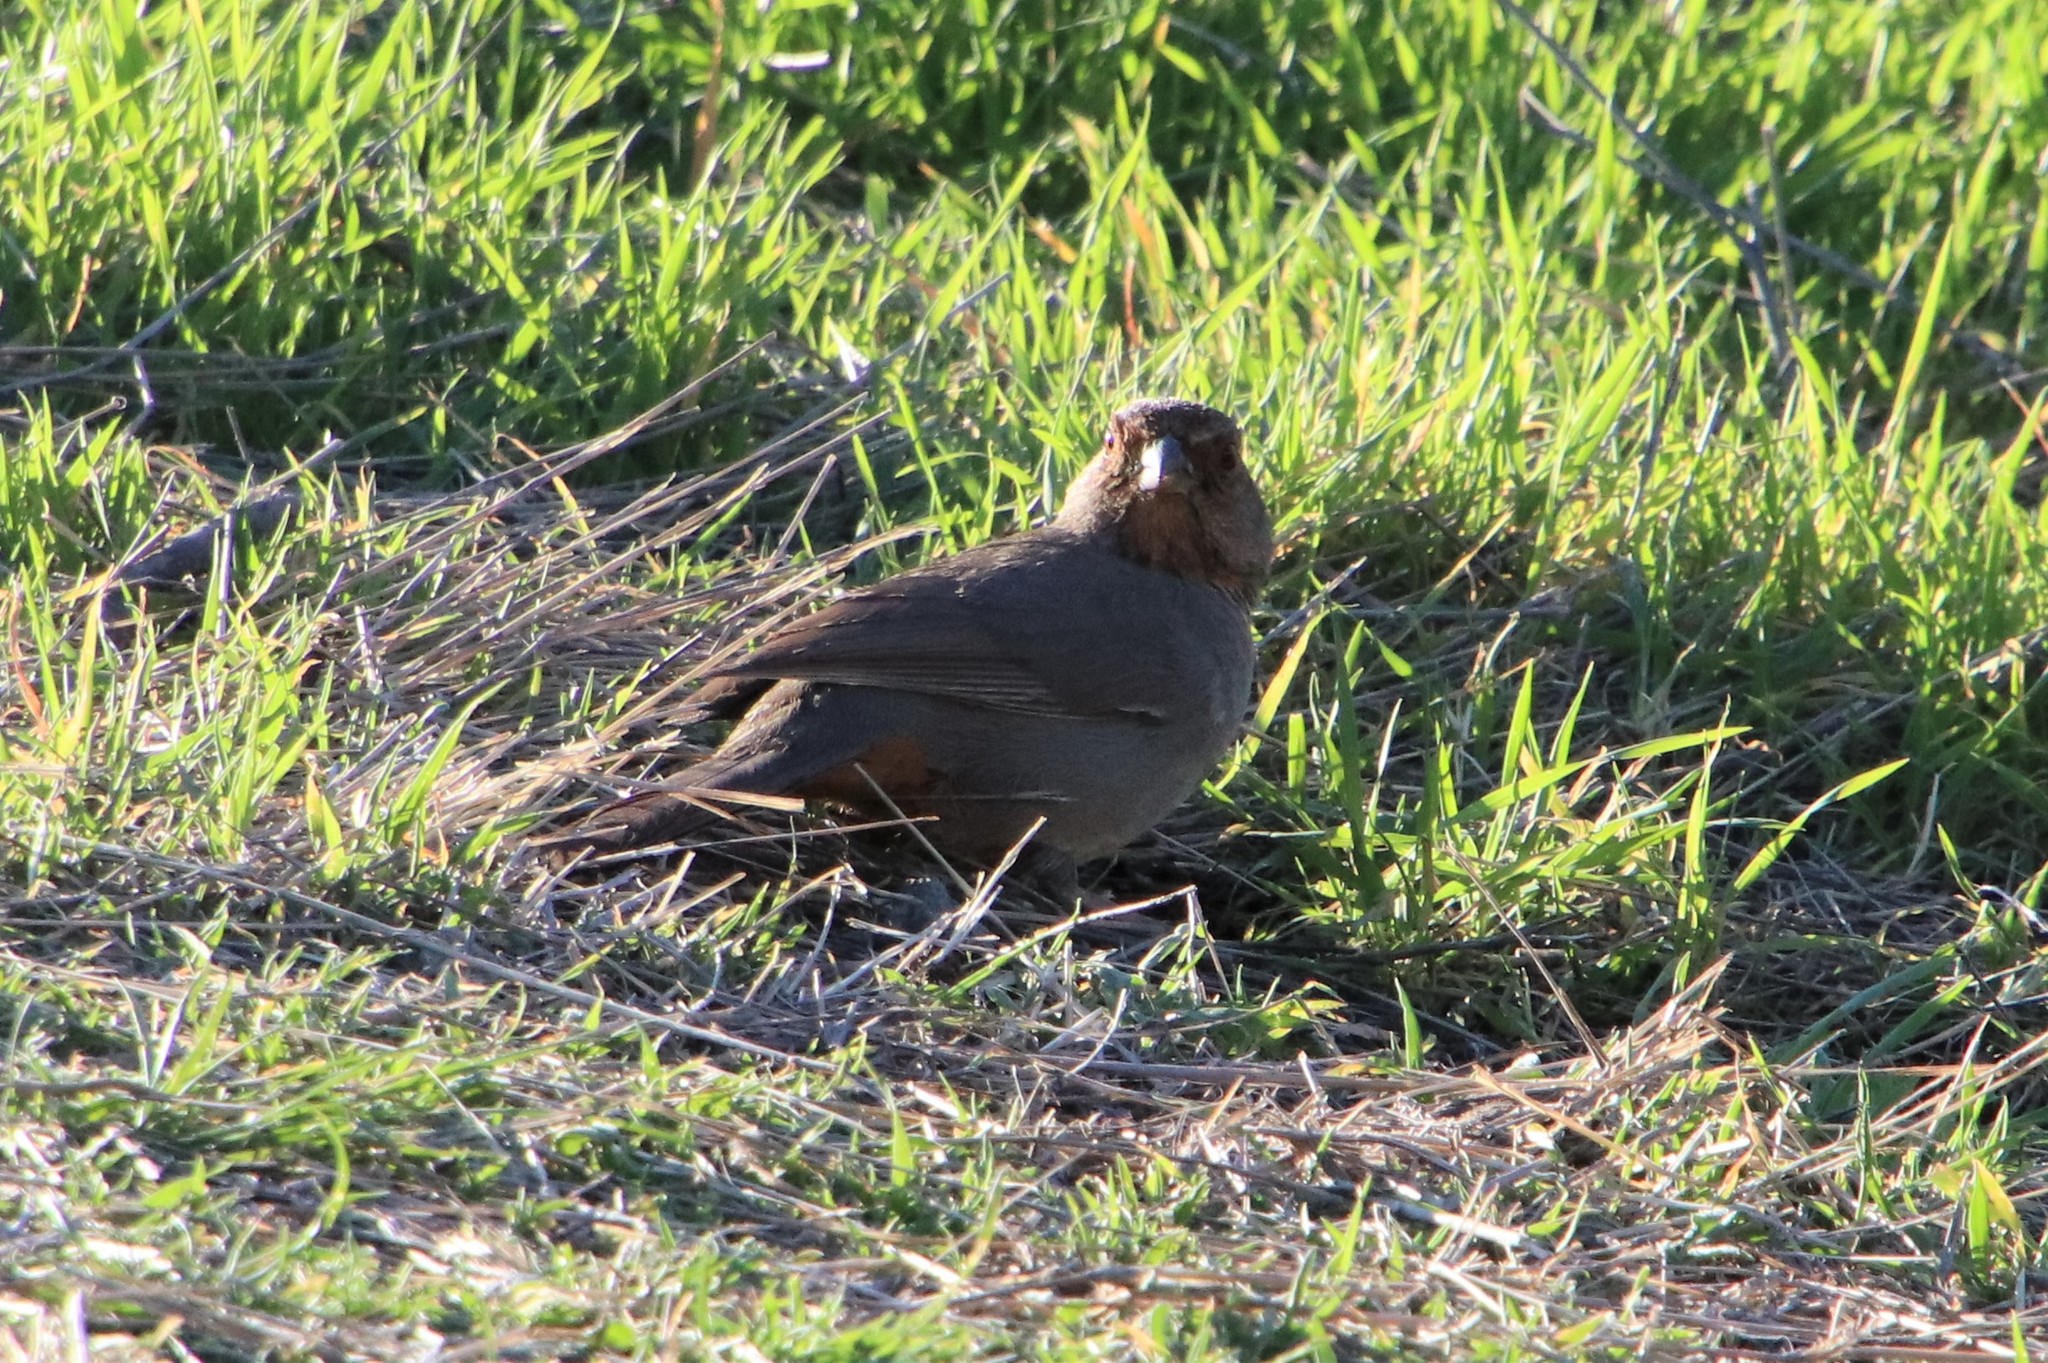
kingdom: Animalia
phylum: Chordata
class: Aves
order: Passeriformes
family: Passerellidae
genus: Melozone
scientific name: Melozone crissalis
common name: California towhee
